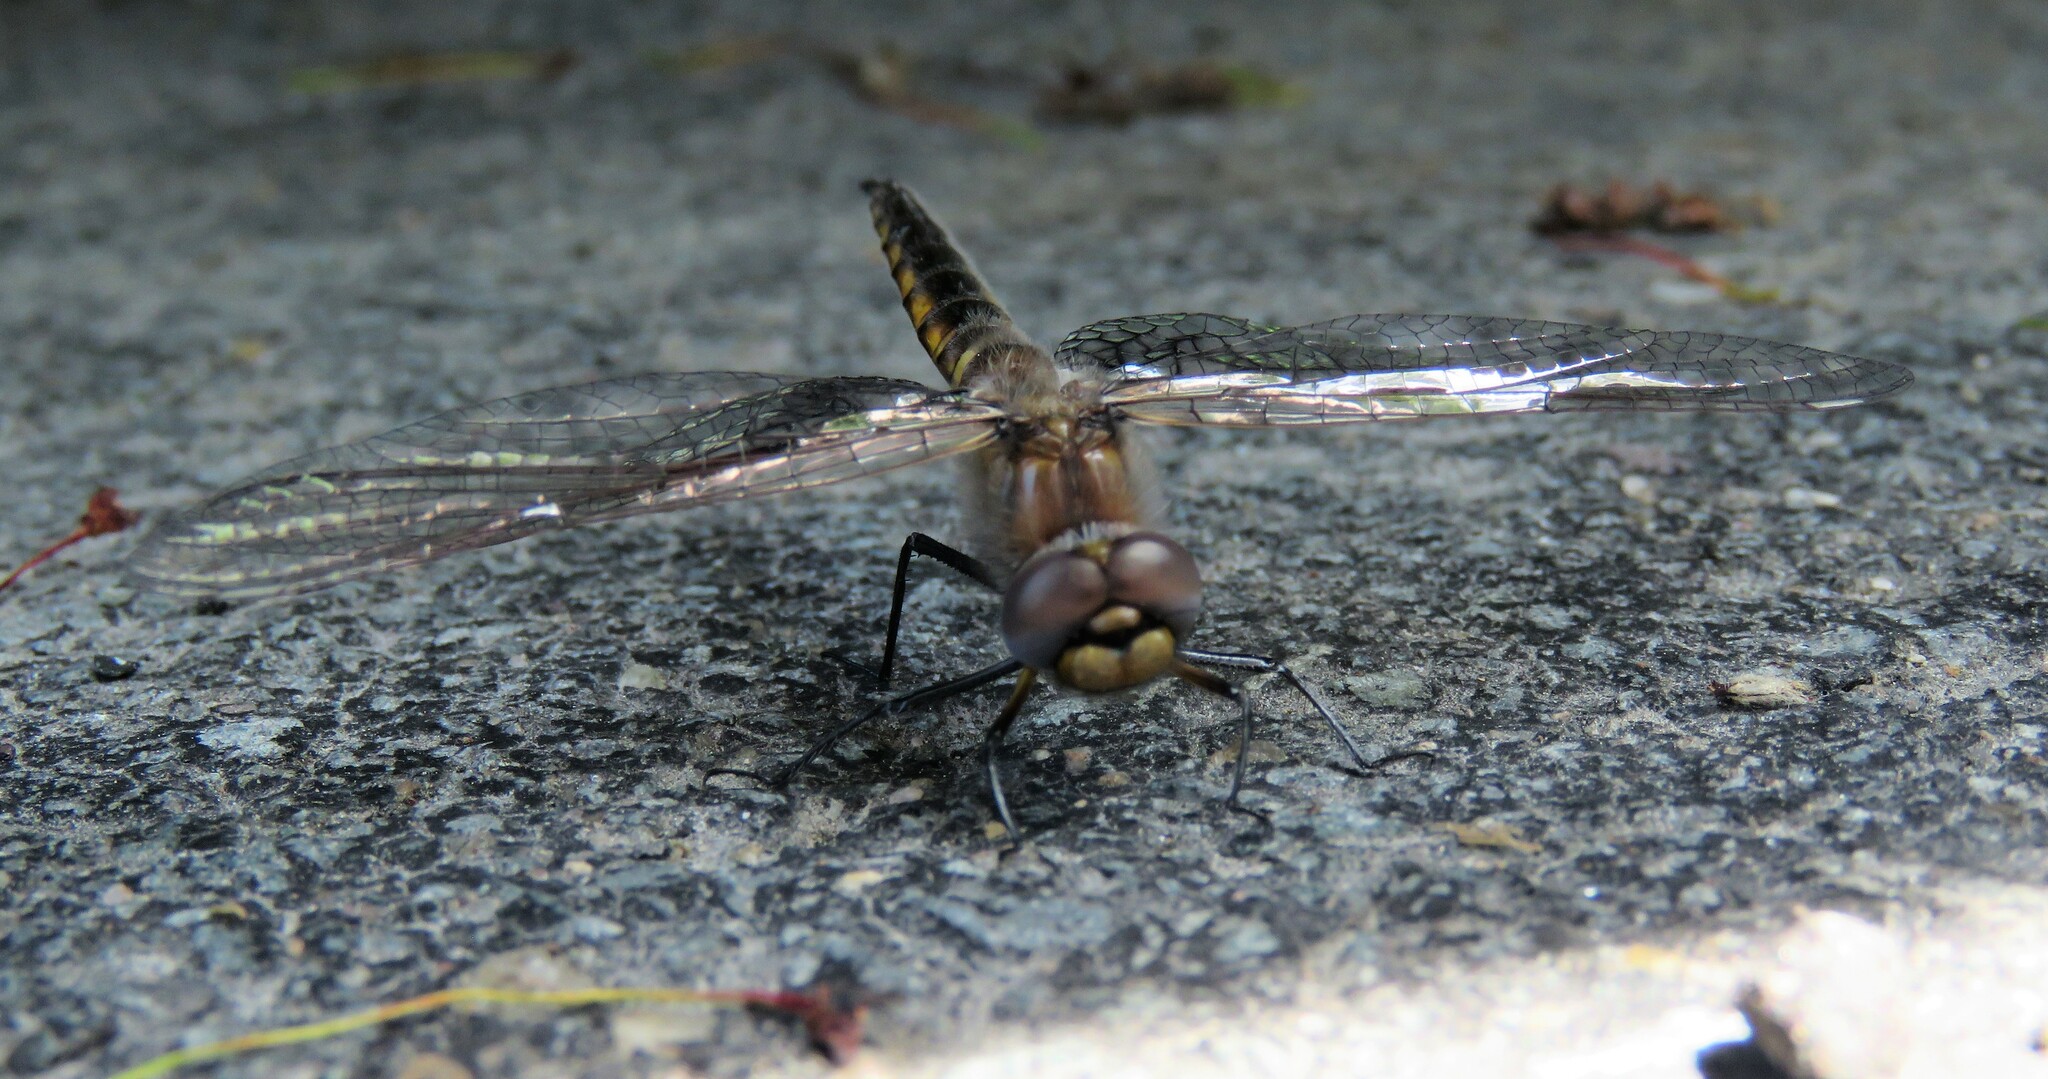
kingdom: Animalia
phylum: Arthropoda
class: Insecta
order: Odonata
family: Corduliidae
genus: Epitheca
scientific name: Epitheca cynosura
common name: Common baskettail
